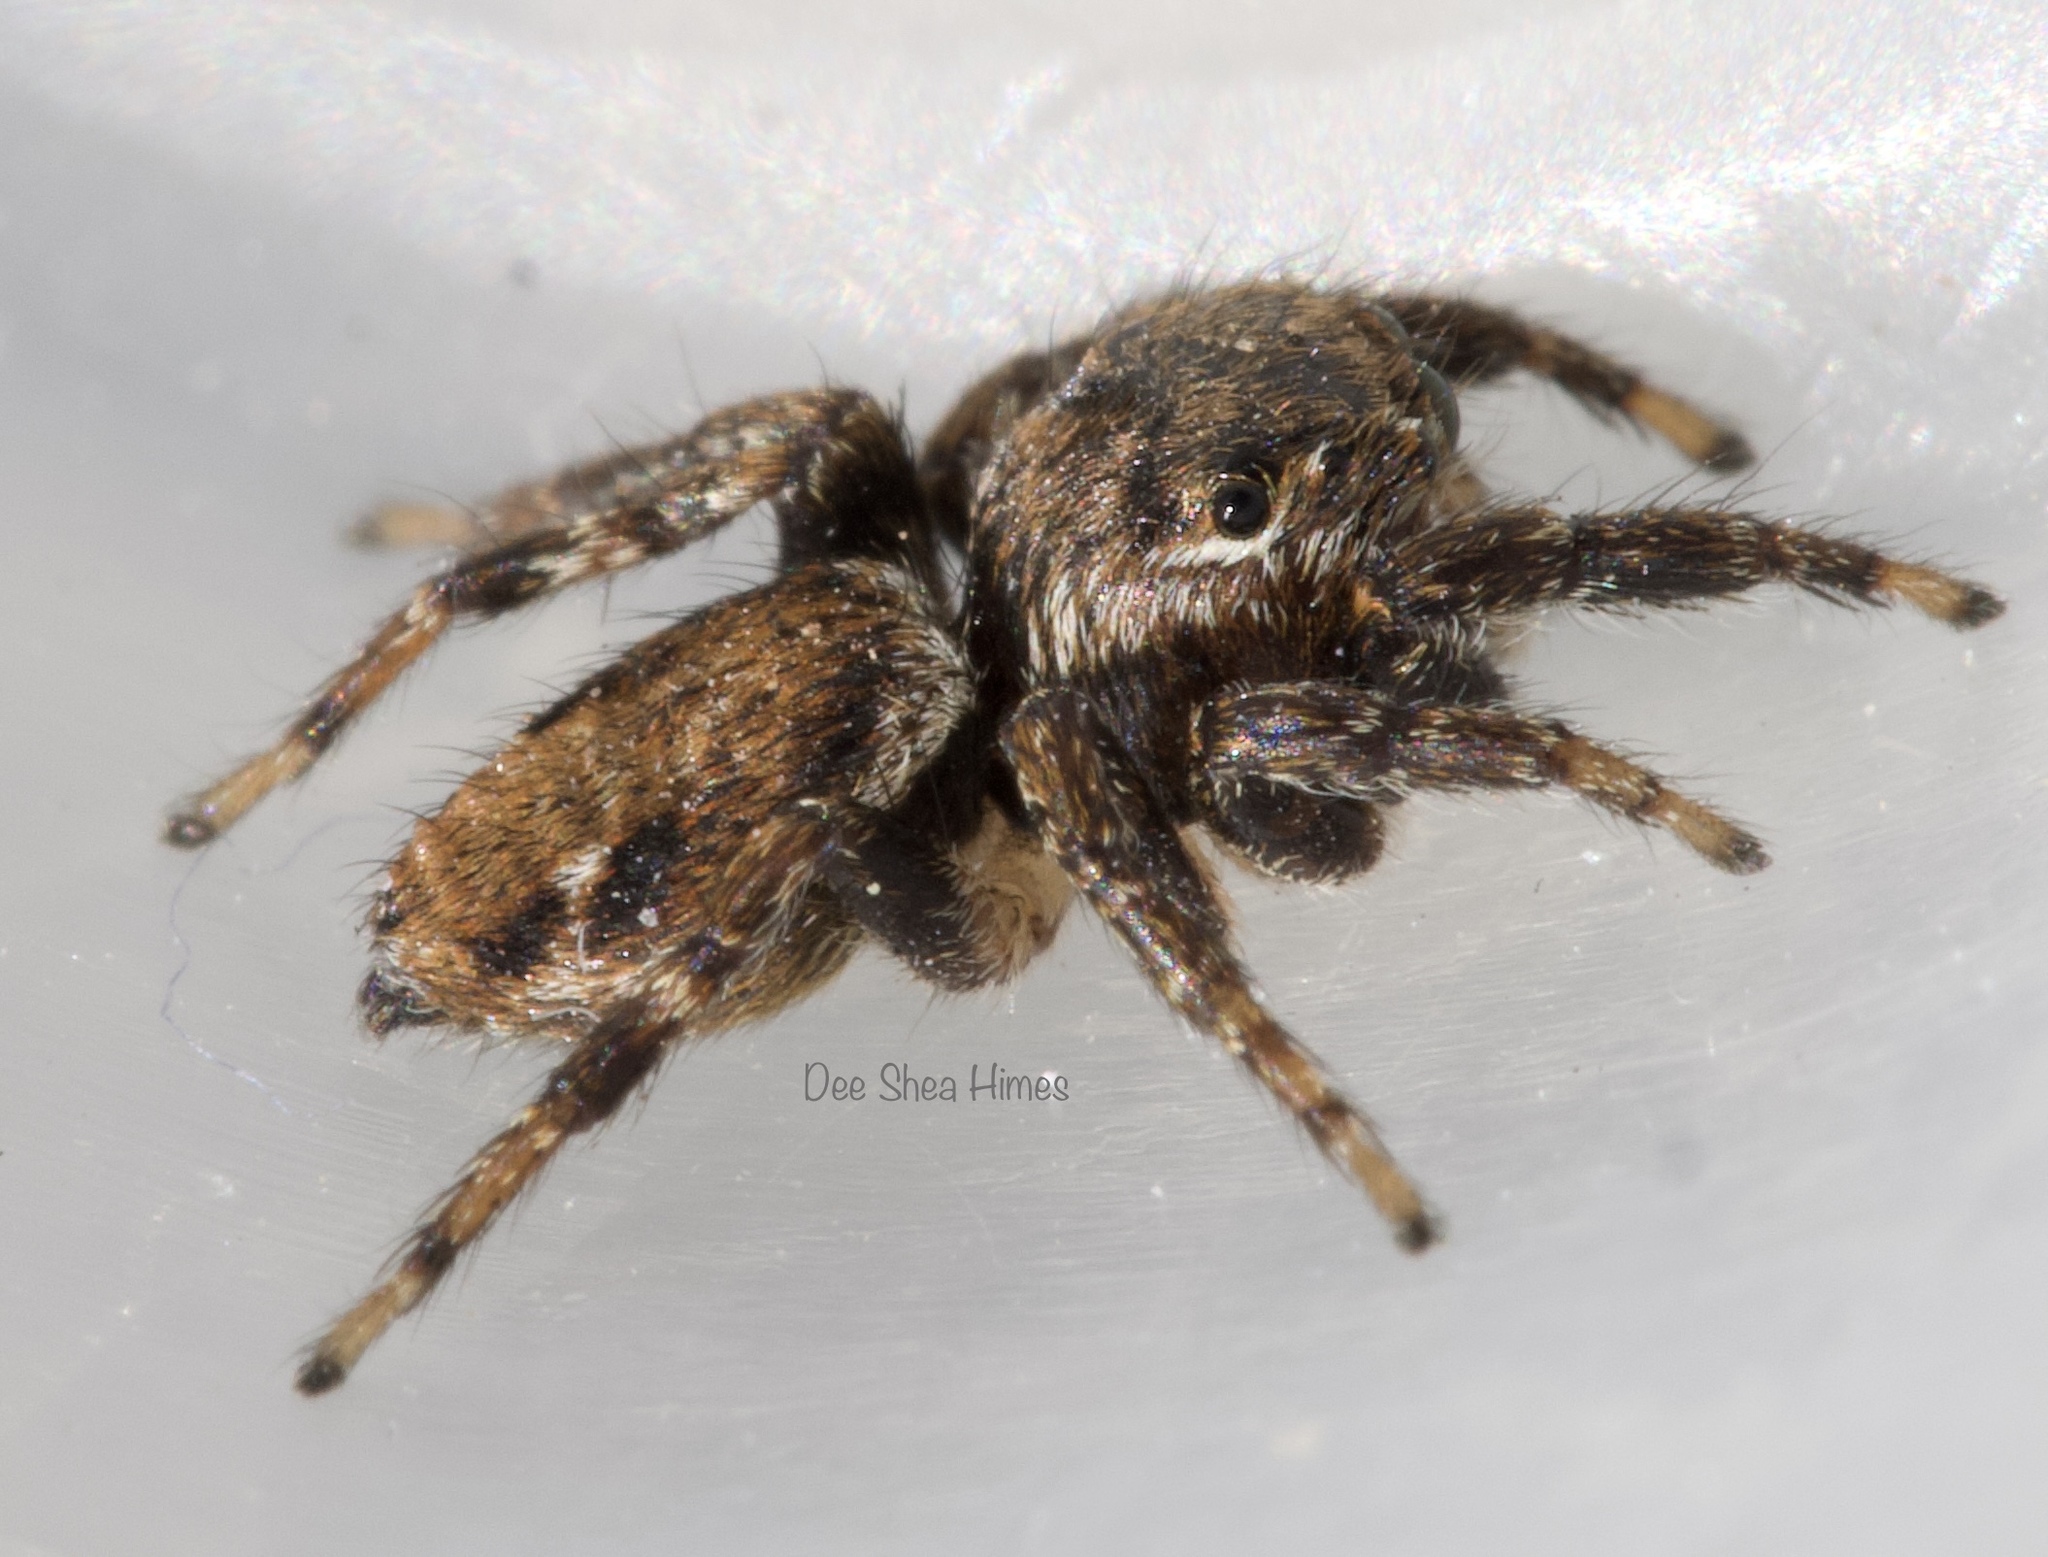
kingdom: Animalia
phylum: Arthropoda
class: Arachnida
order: Araneae
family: Salticidae
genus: Evarcha
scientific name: Evarcha proszynskii
